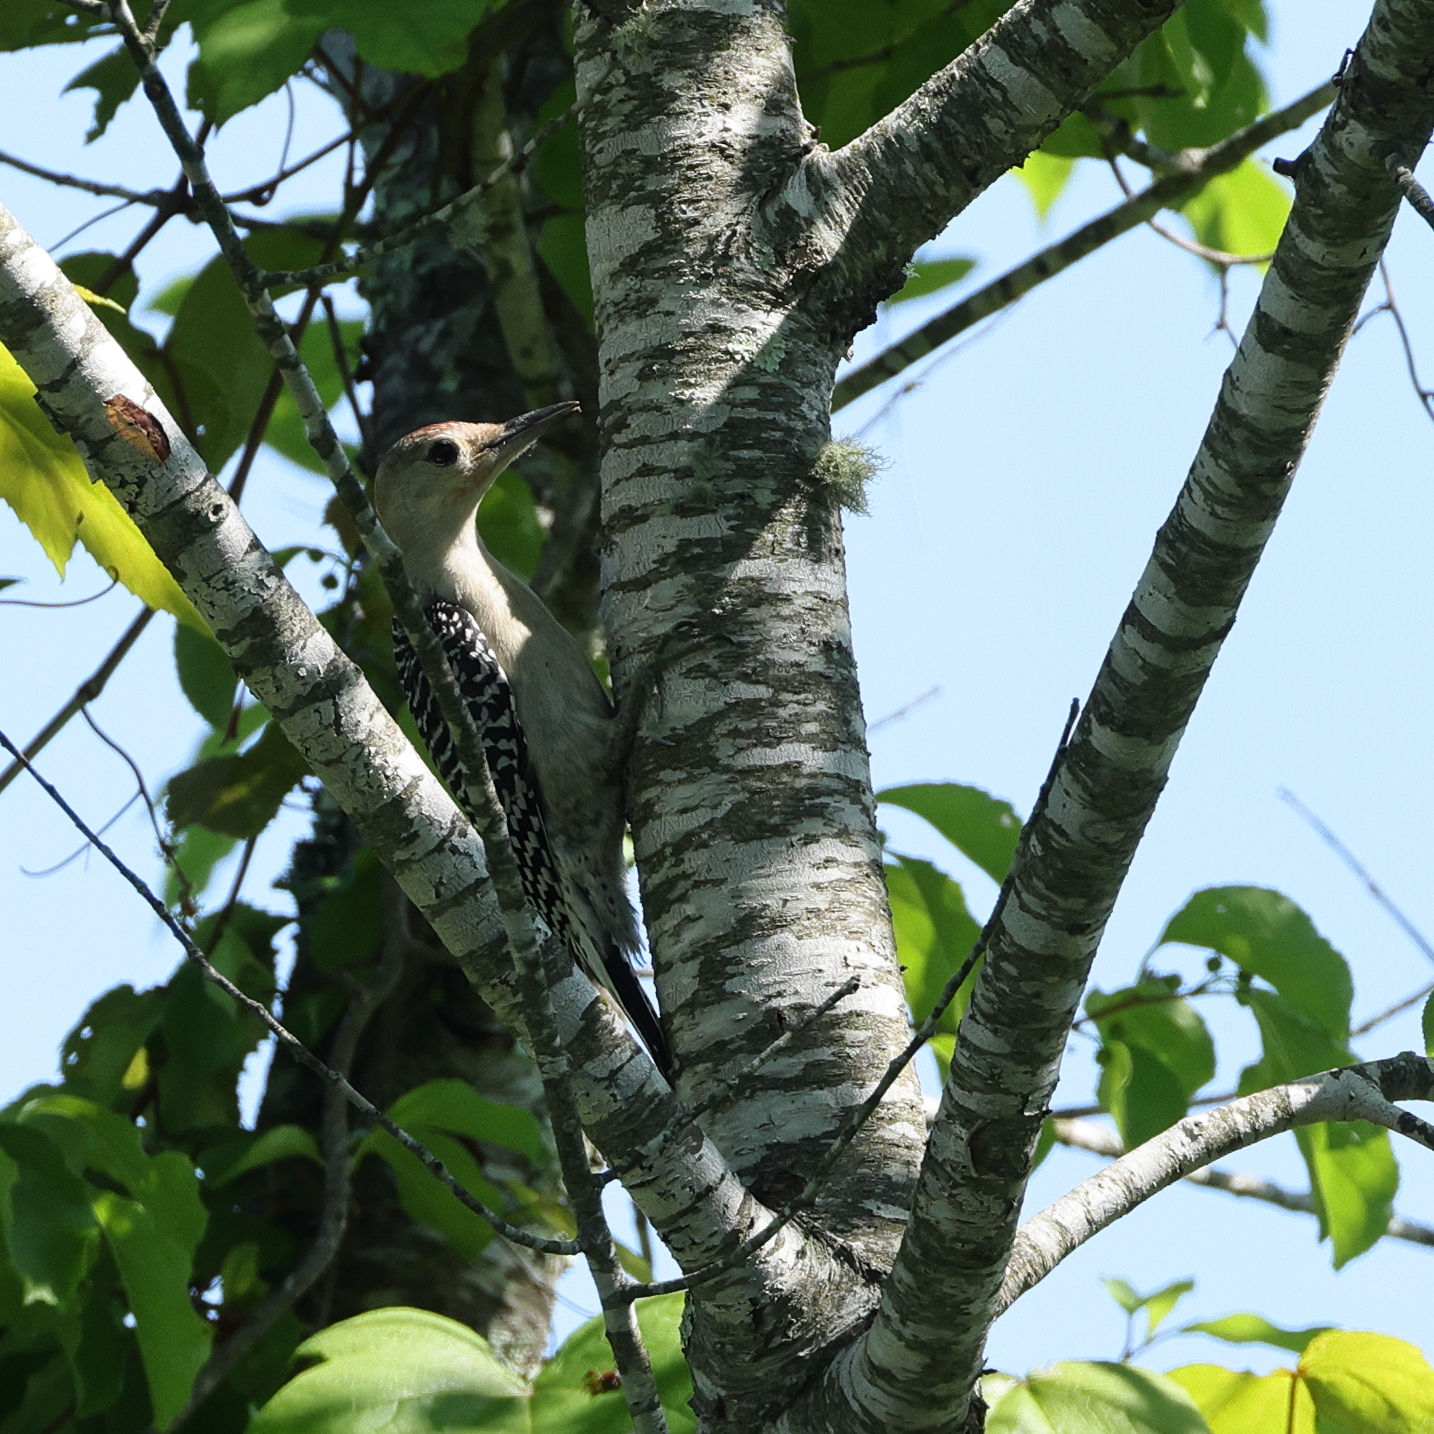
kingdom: Animalia
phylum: Chordata
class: Aves
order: Piciformes
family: Picidae
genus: Melanerpes
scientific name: Melanerpes carolinus
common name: Red-bellied woodpecker
